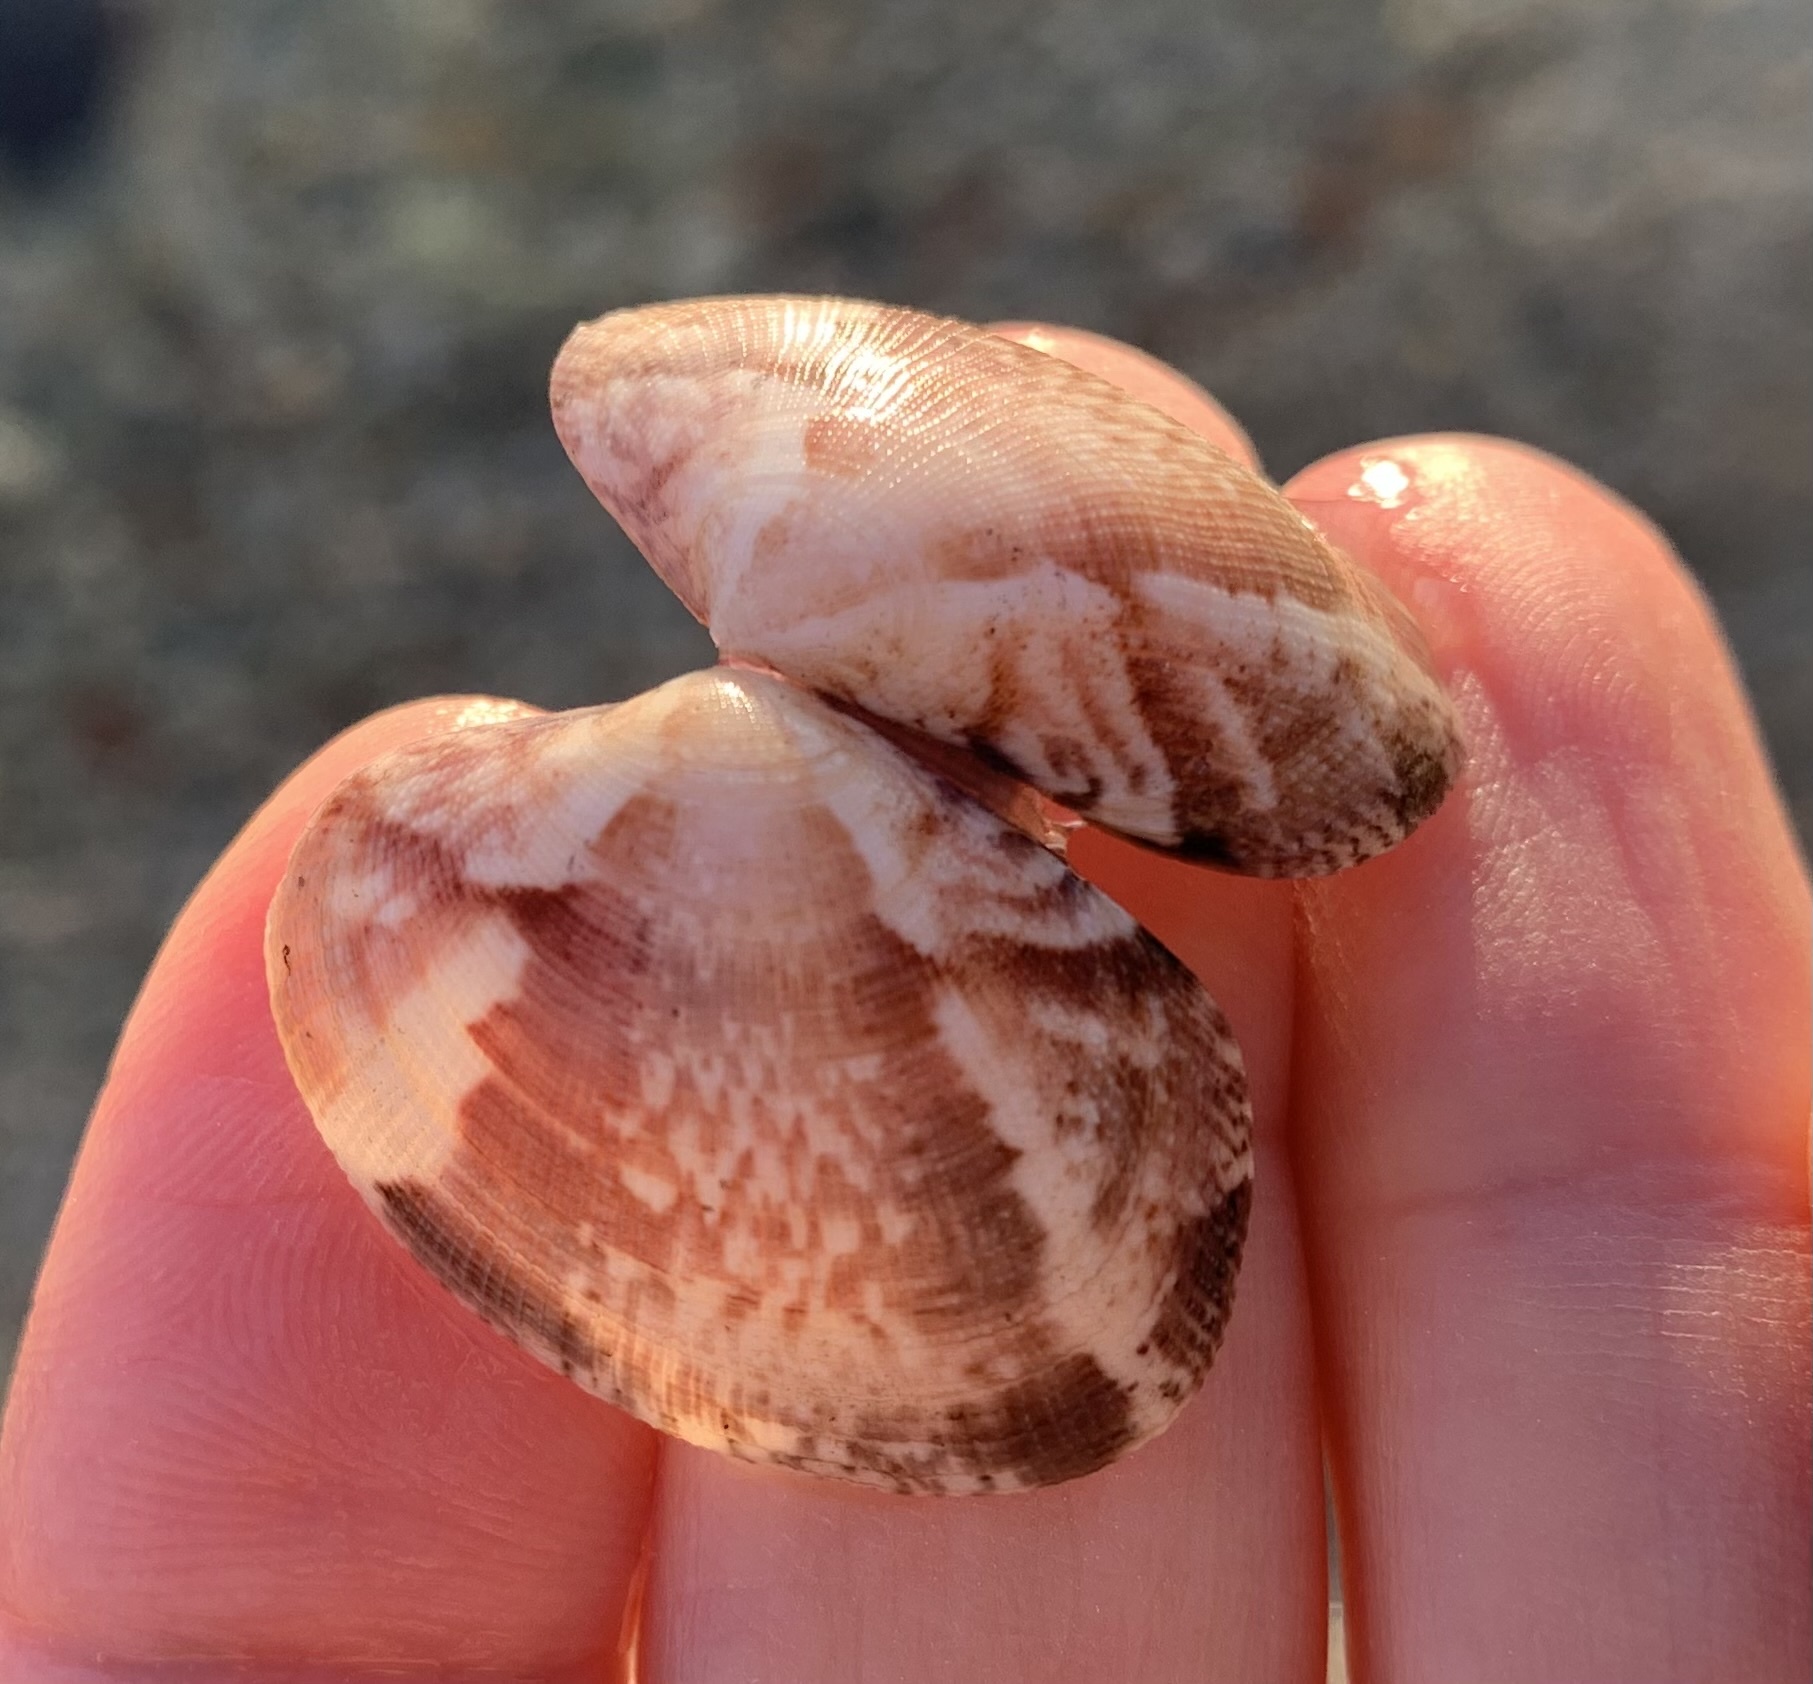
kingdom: Animalia
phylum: Mollusca
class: Bivalvia
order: Venerida
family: Veneridae
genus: Ruditapes
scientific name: Ruditapes decussatus
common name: Chequered carpet shell
